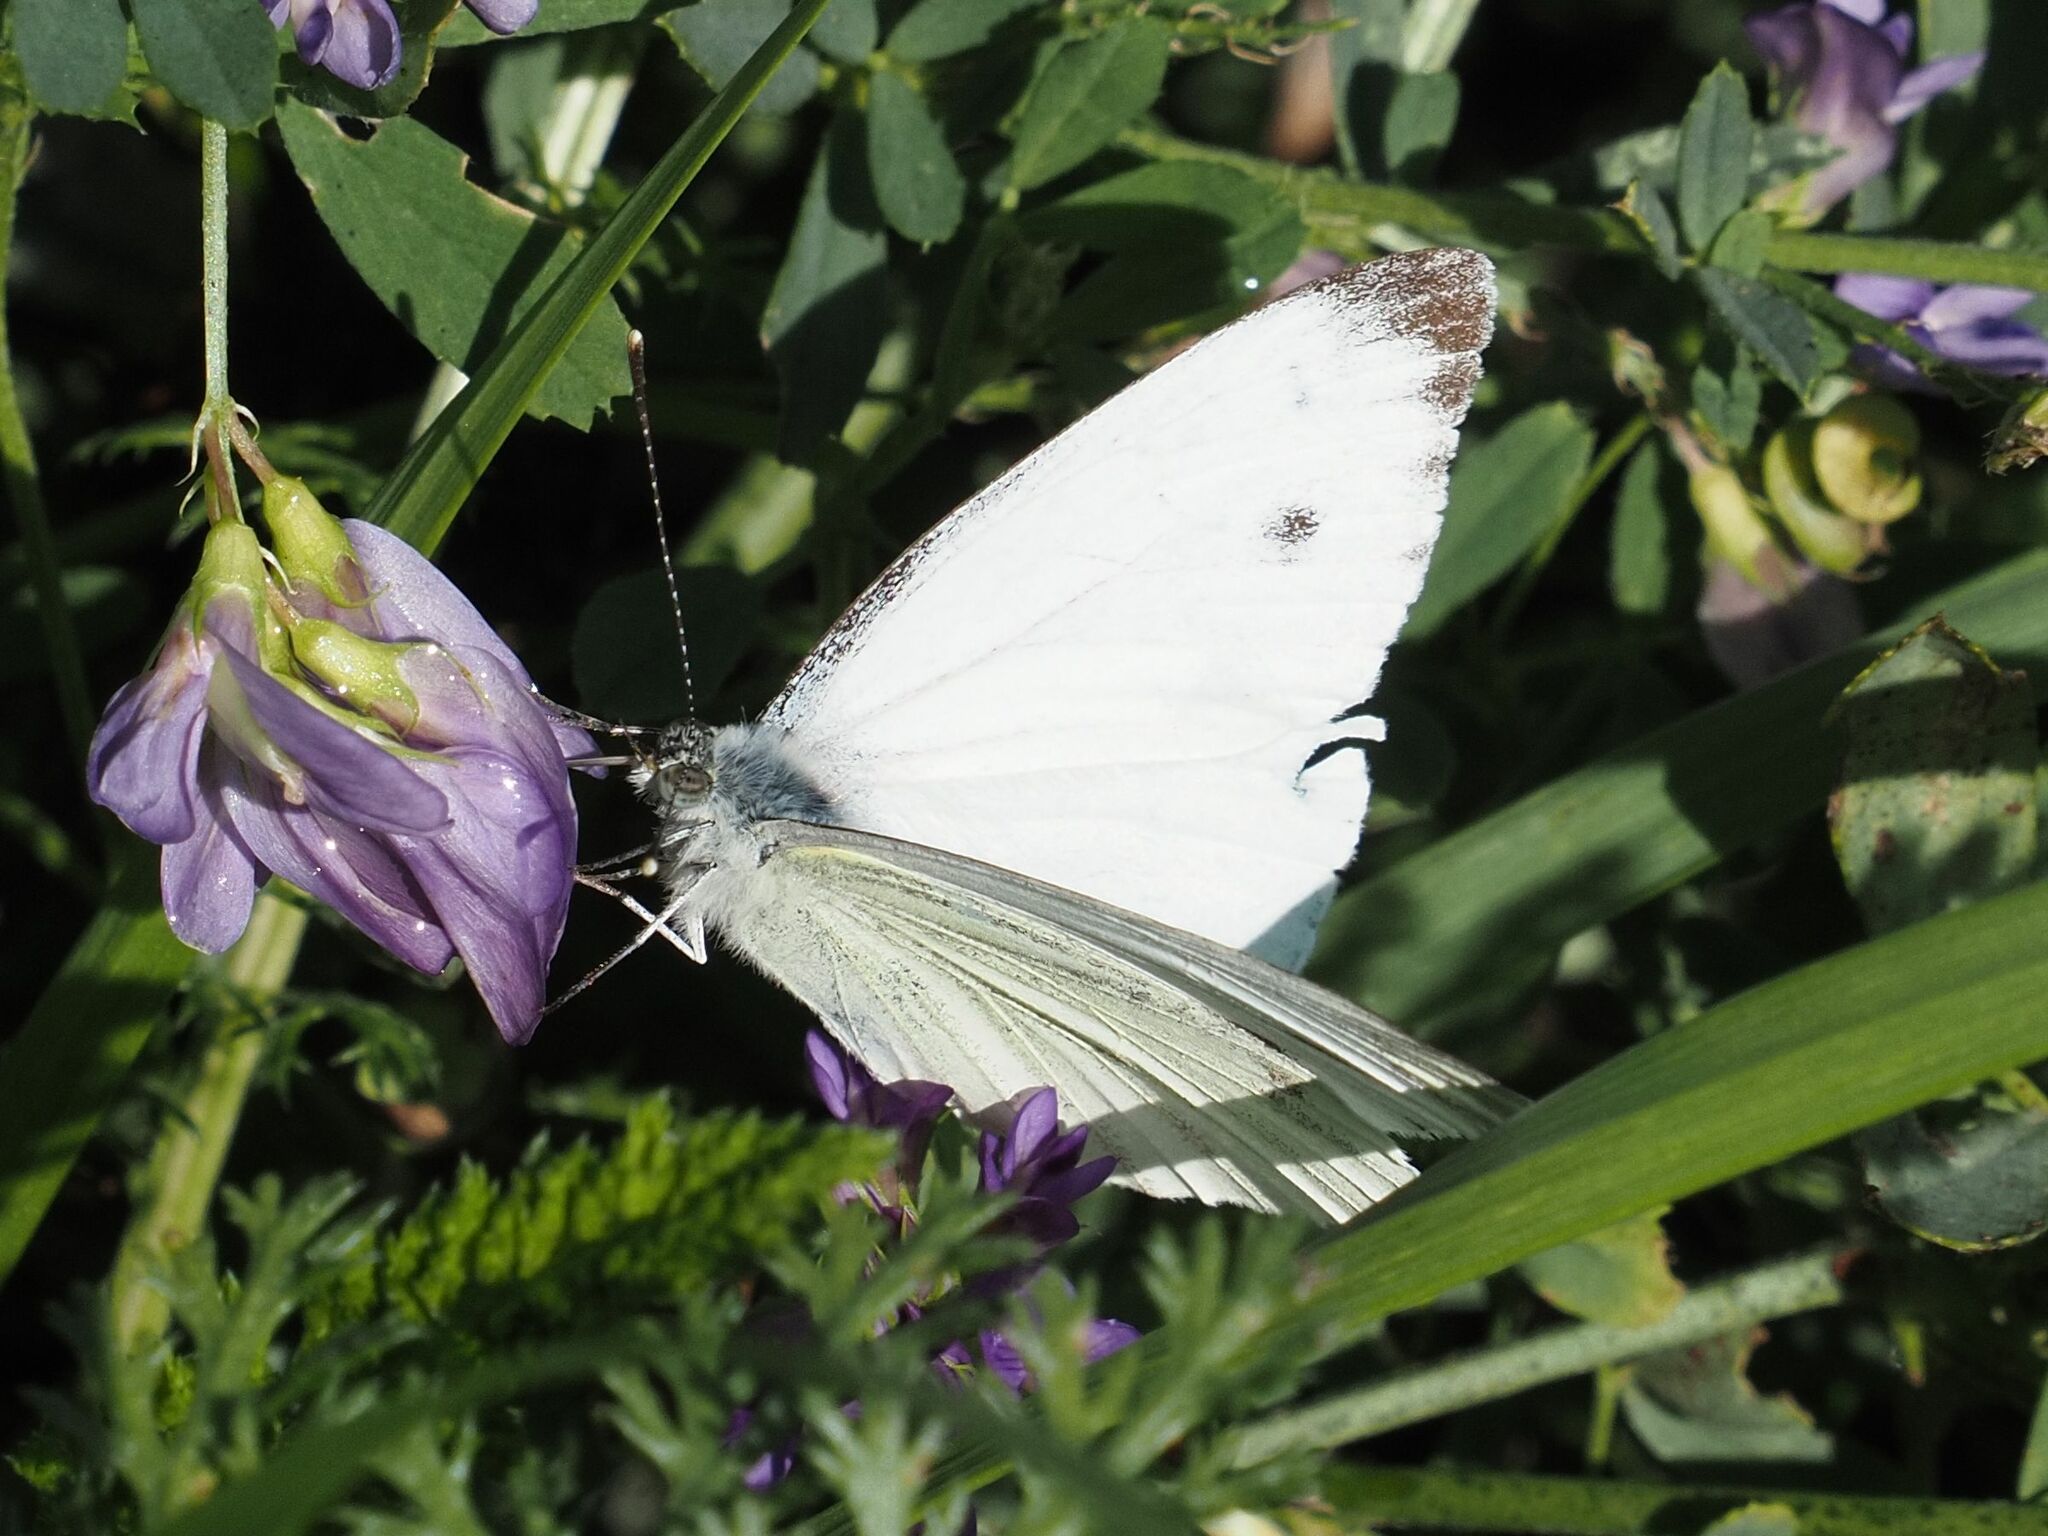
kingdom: Animalia
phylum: Arthropoda
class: Insecta
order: Lepidoptera
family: Pieridae
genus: Pieris
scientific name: Pieris napi
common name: Green-veined white
